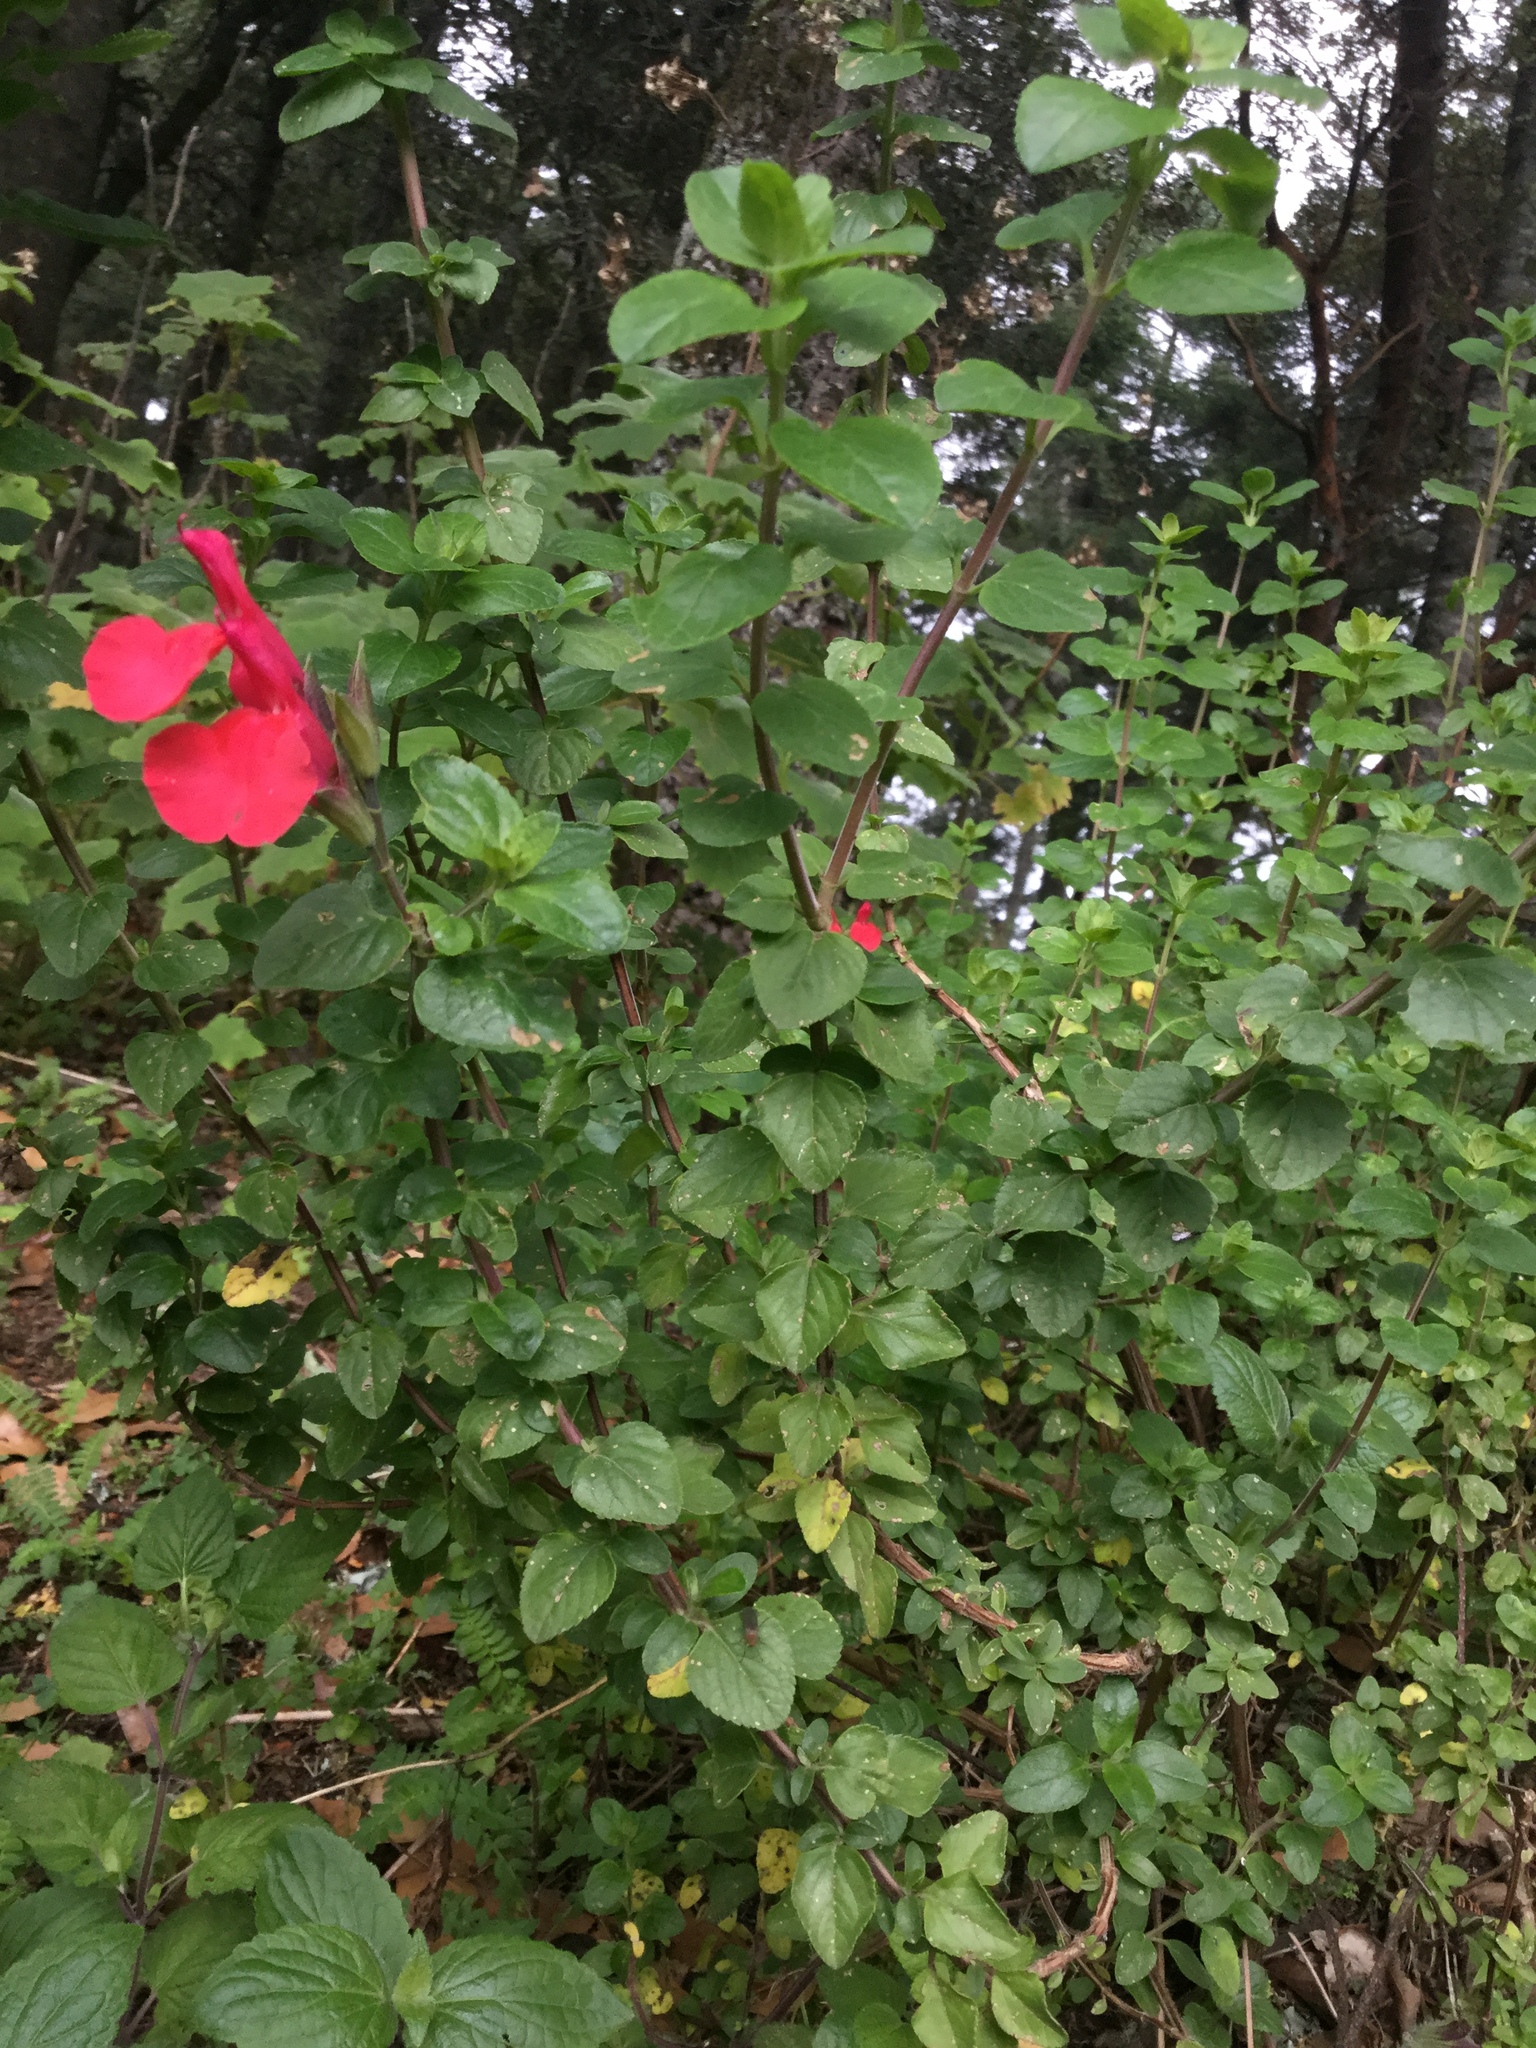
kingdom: Plantae
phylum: Tracheophyta
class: Magnoliopsida
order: Lamiales
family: Lamiaceae
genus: Salvia
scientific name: Salvia microphylla
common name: Baby sage
